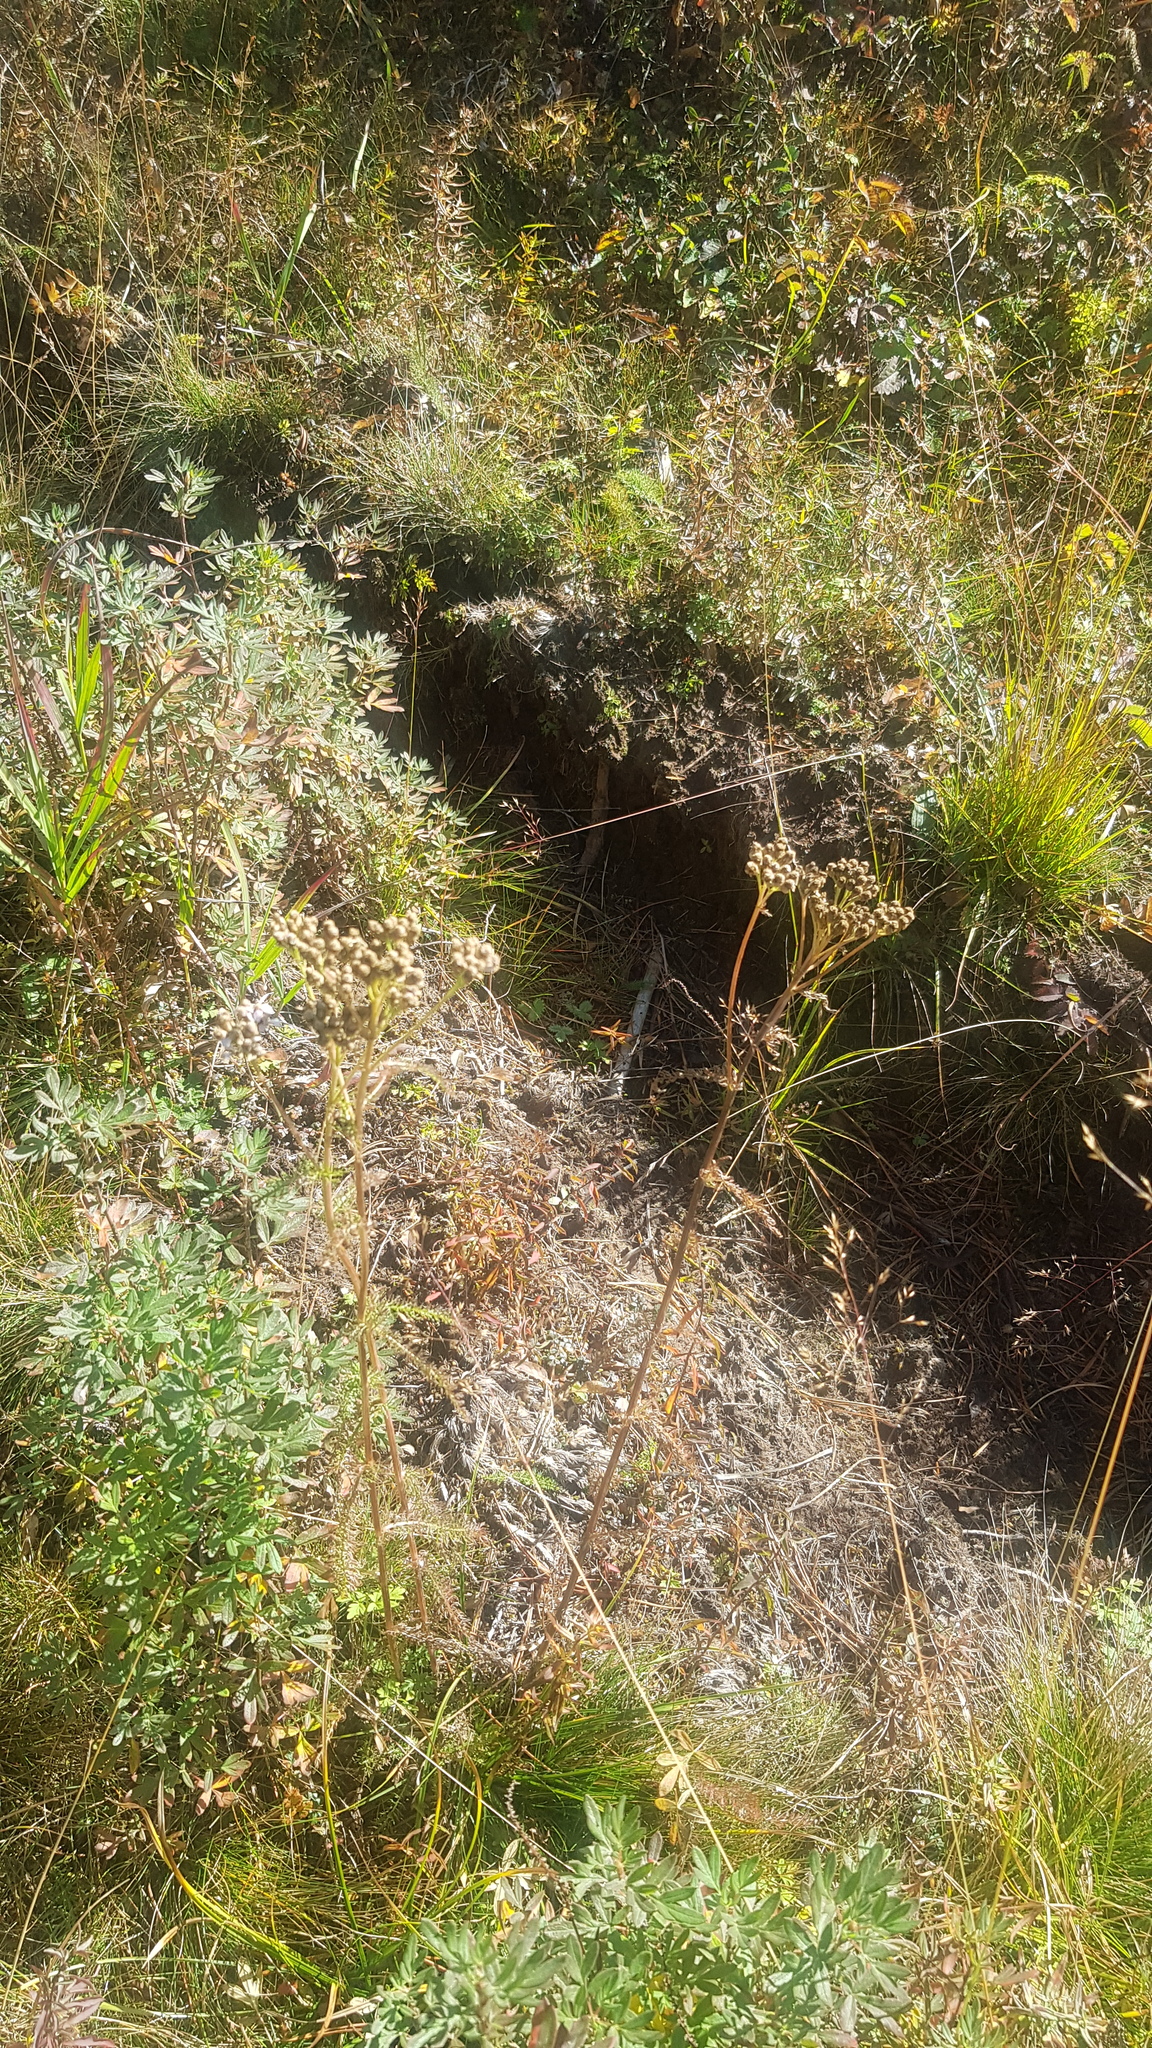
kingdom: Plantae
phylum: Tracheophyta
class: Magnoliopsida
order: Asterales
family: Asteraceae
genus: Achillea
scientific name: Achillea asiatica
